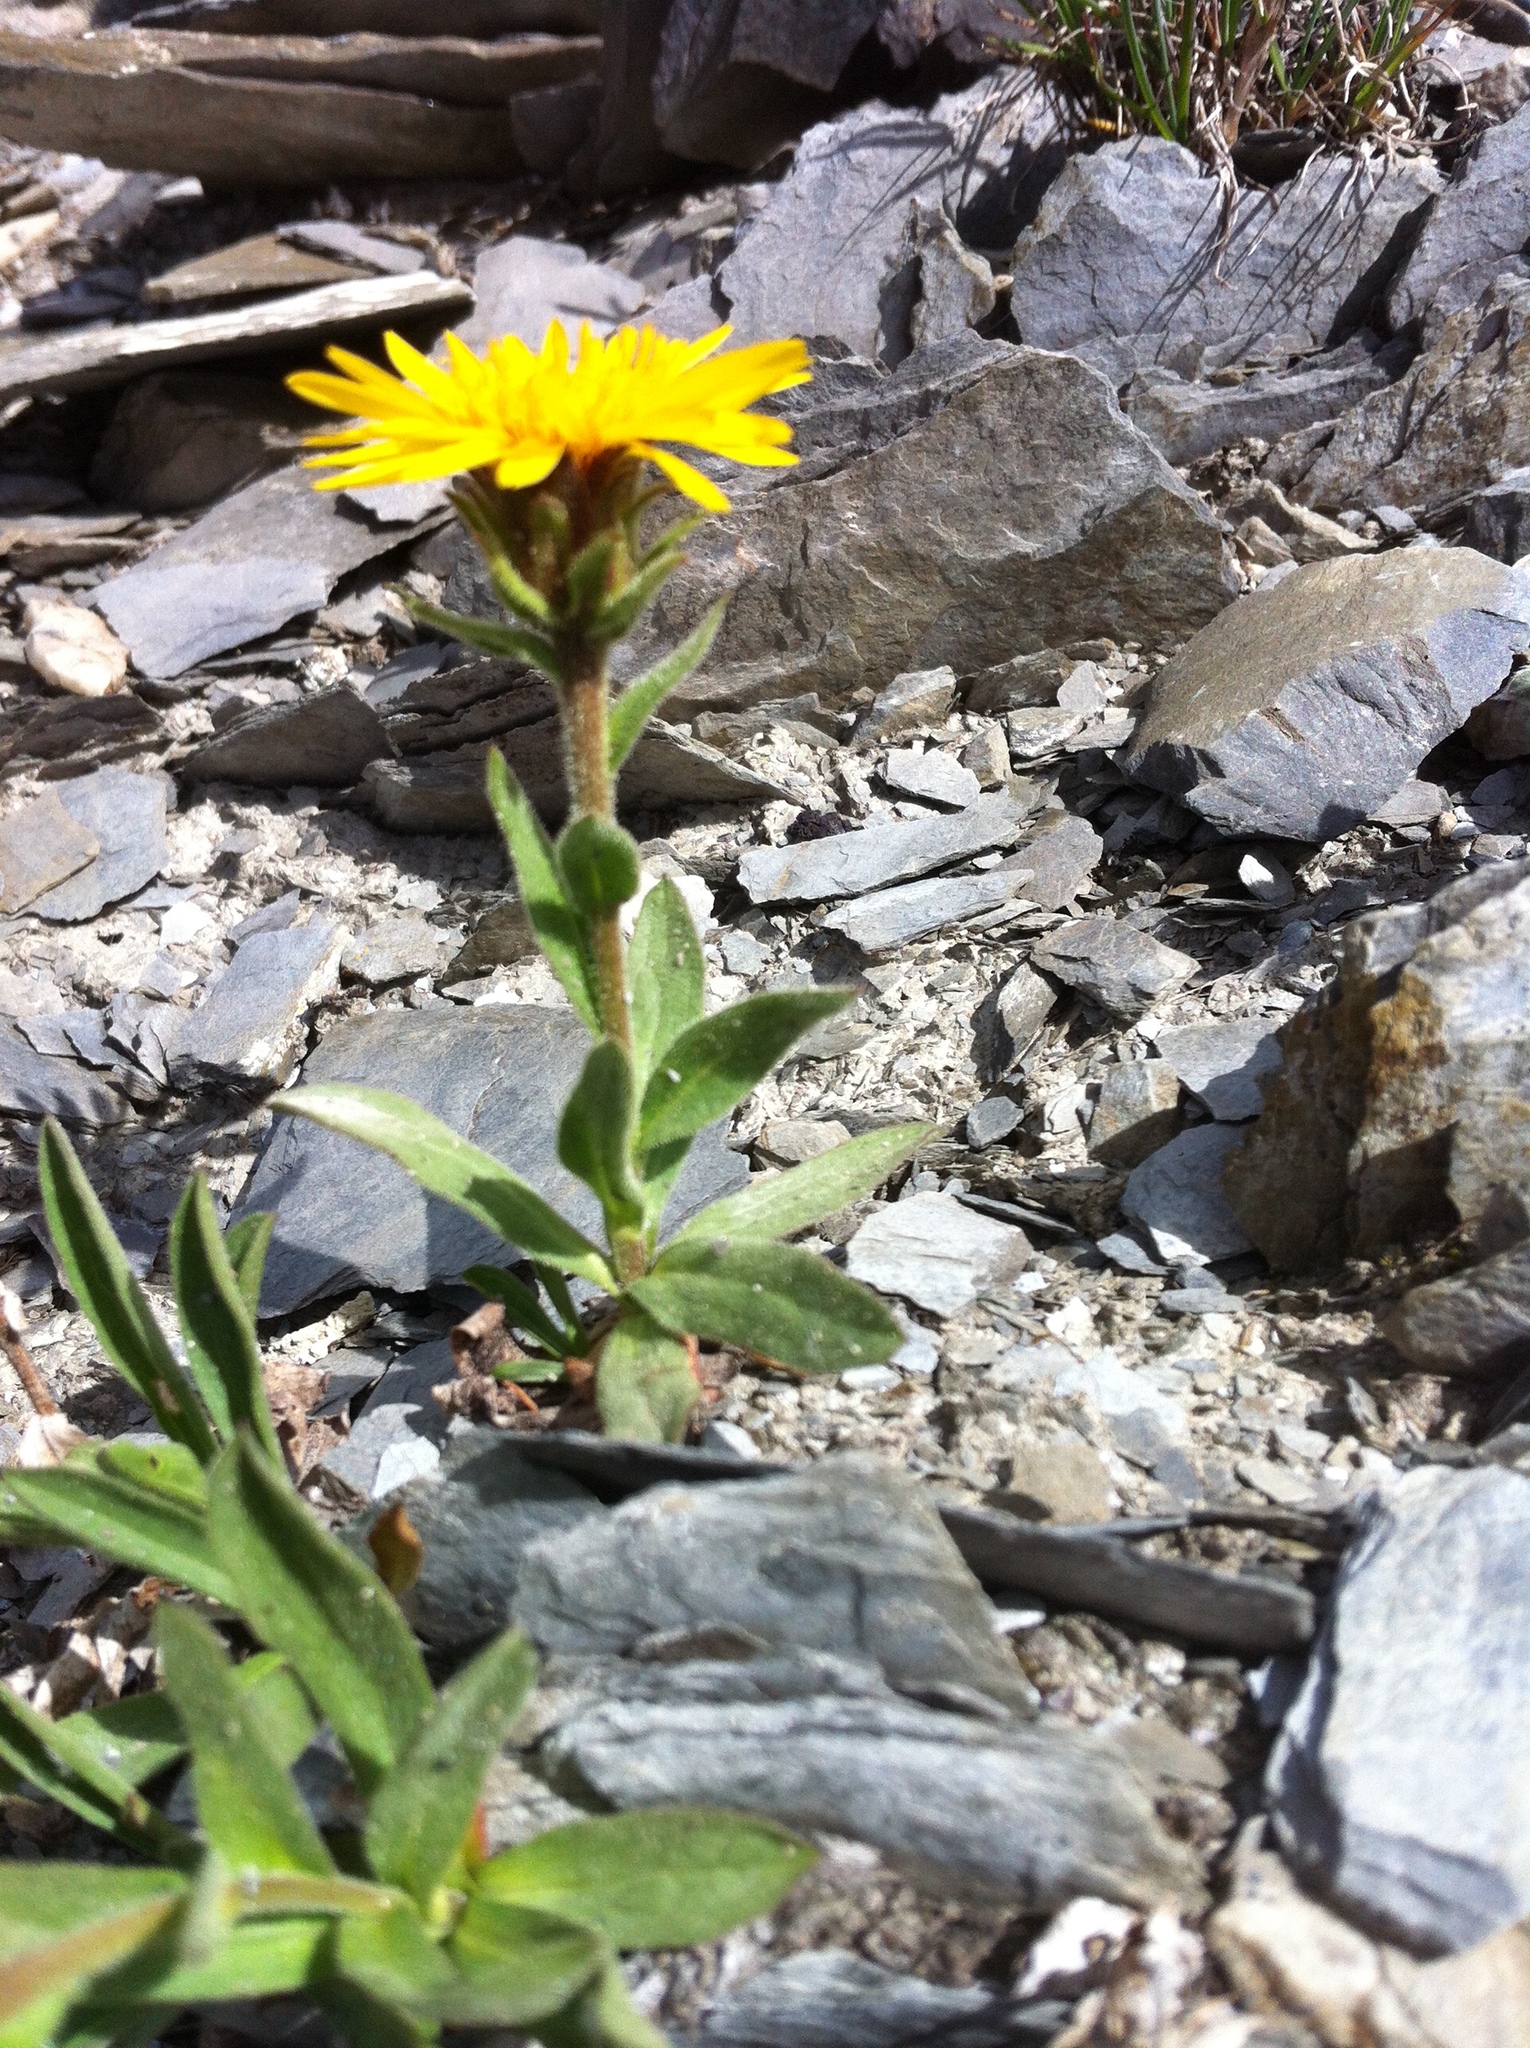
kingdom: Plantae
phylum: Tracheophyta
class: Magnoliopsida
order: Asterales
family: Asteraceae
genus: Tonestus
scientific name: Tonestus lyallii
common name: Lyall's goldenweed
